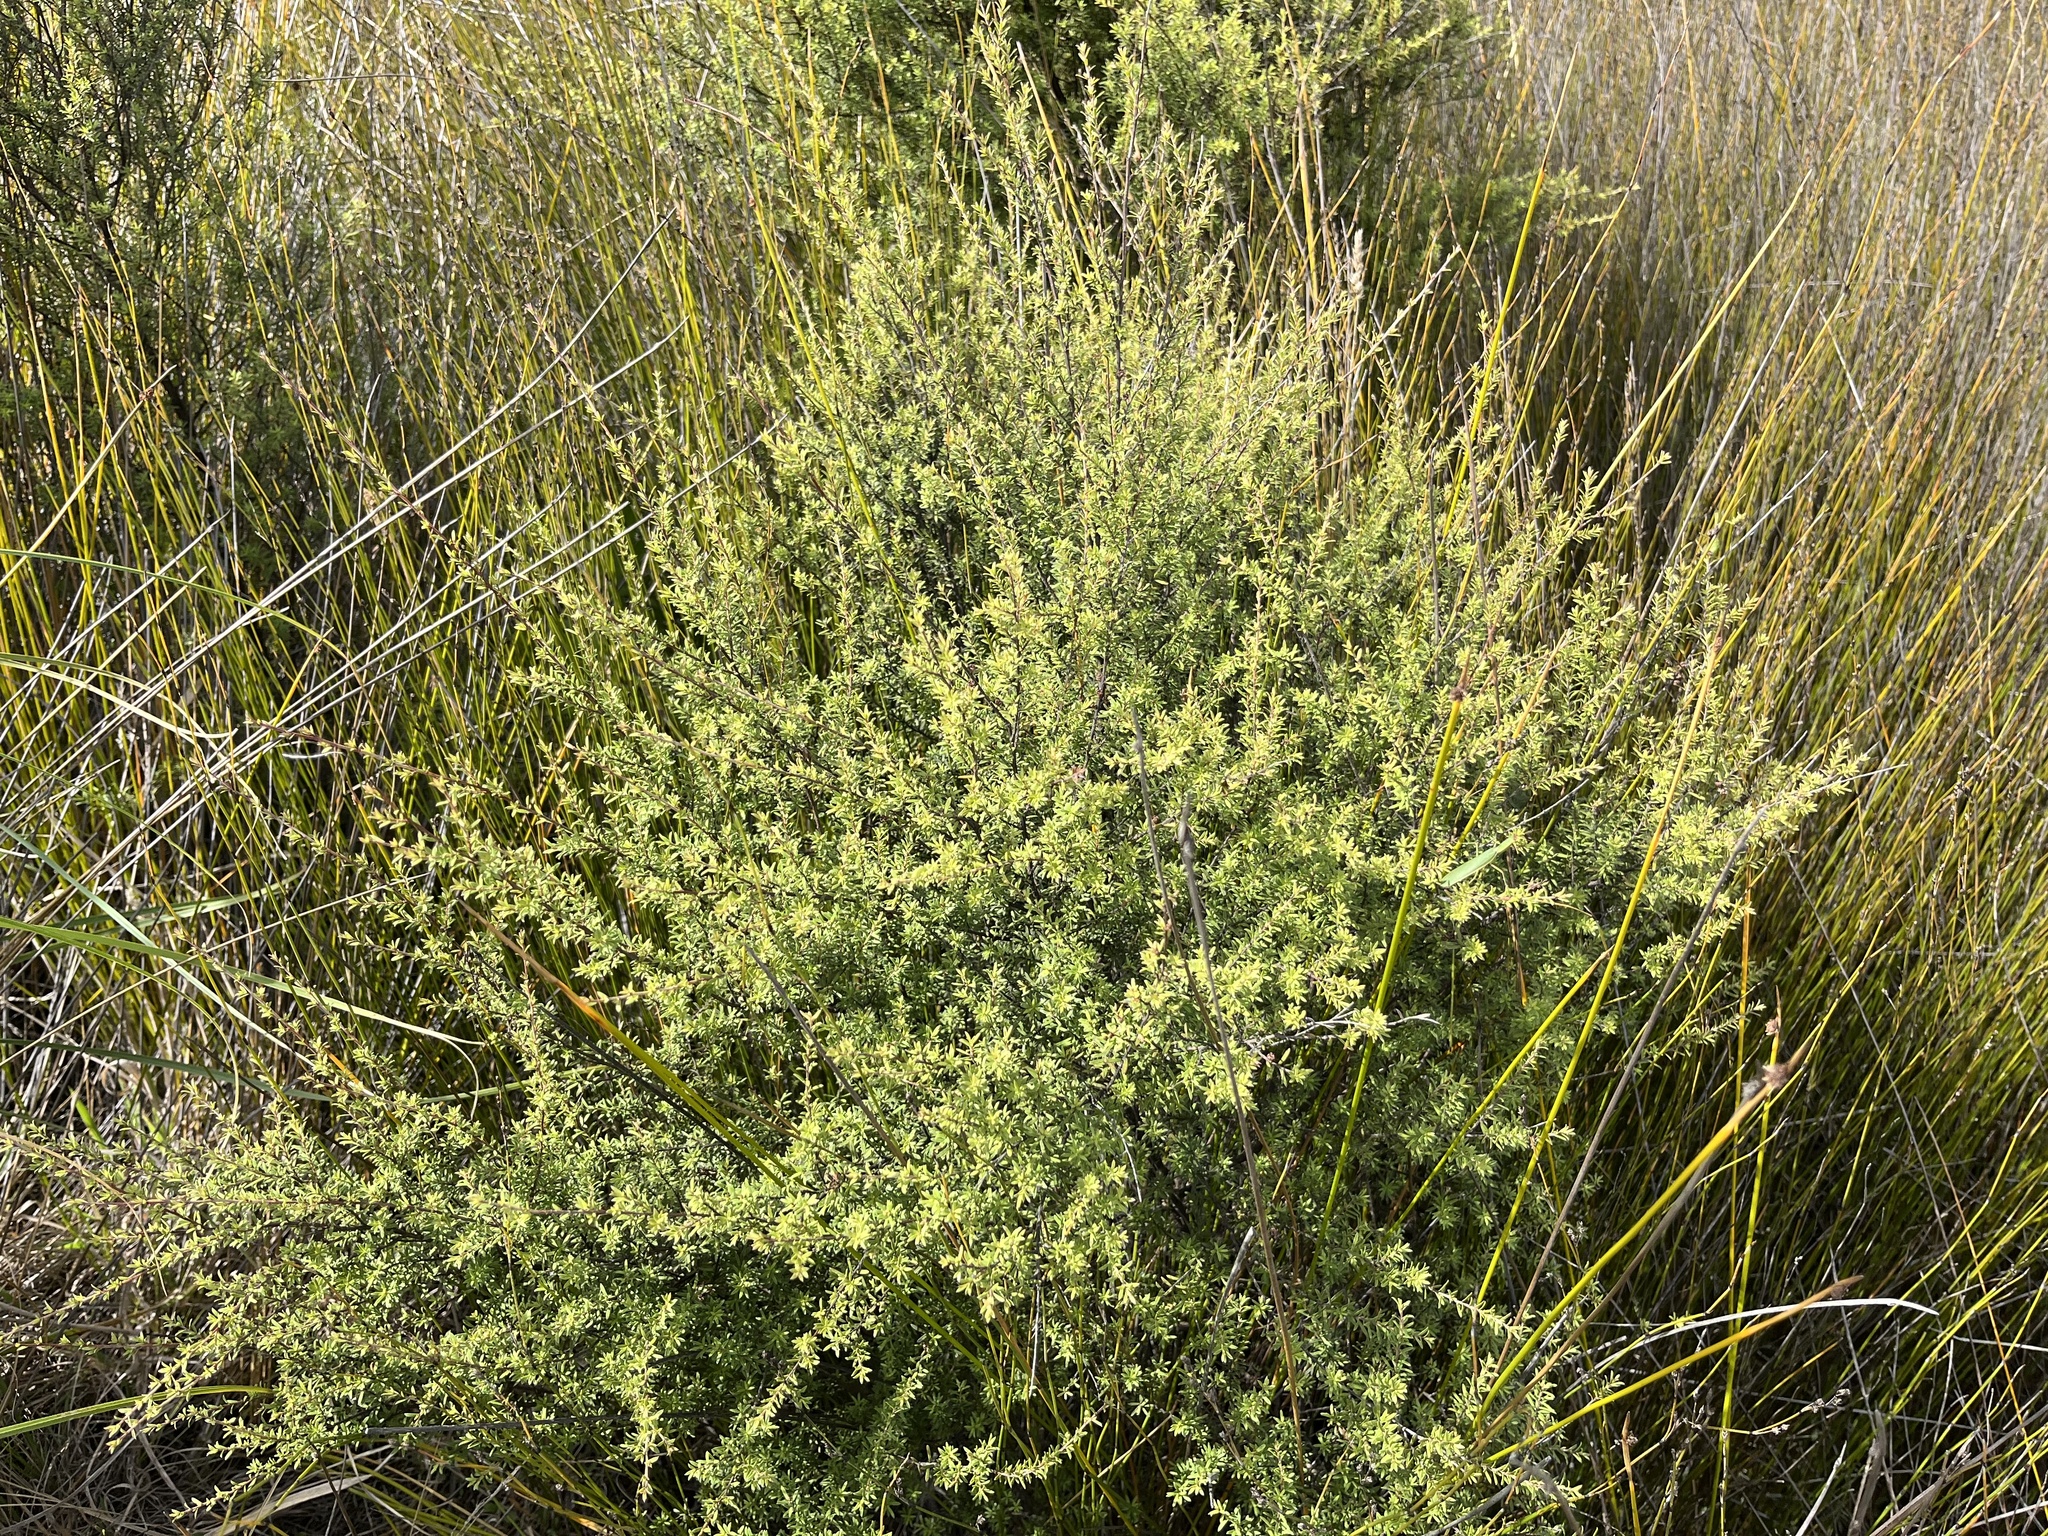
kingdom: Plantae
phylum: Tracheophyta
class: Magnoliopsida
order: Myrtales
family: Myrtaceae
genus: Kunzea
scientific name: Kunzea ericoides
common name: Burgan
